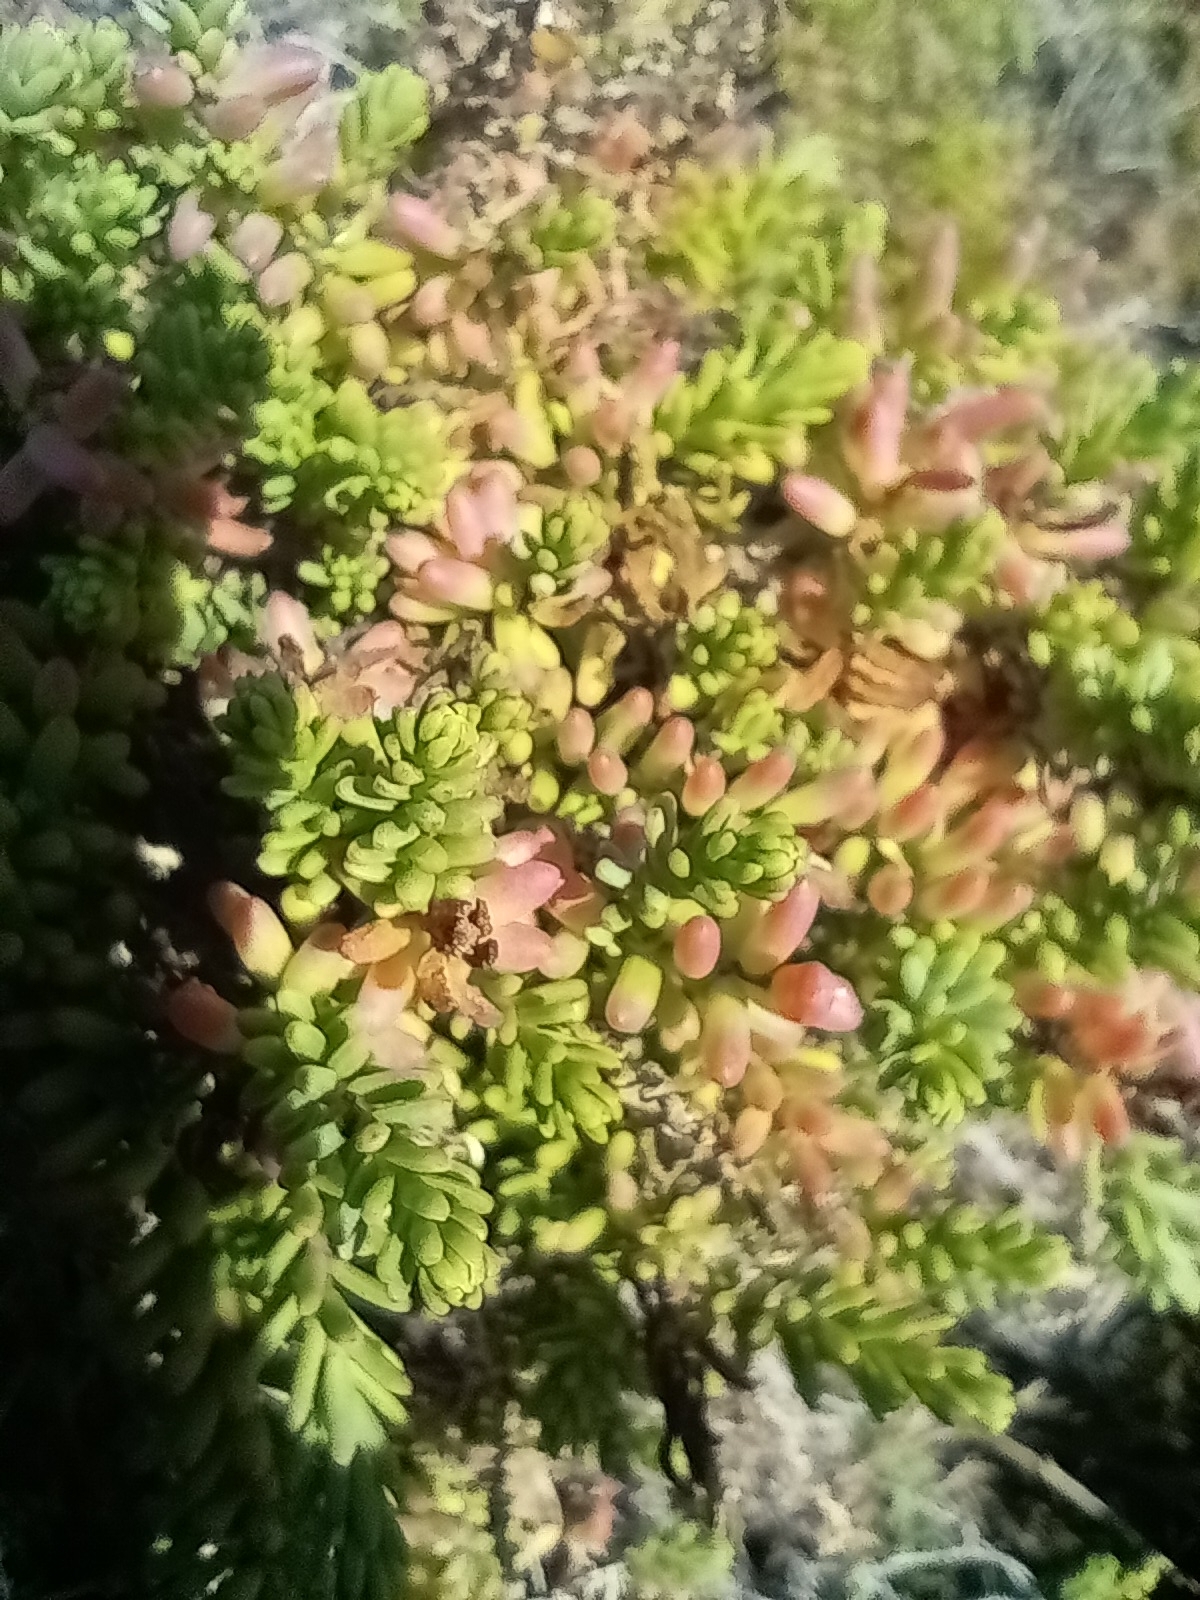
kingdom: Plantae
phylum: Tracheophyta
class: Magnoliopsida
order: Caryophyllales
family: Amaranthaceae
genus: Suaeda
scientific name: Suaeda vera
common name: Shrubby sea-blite
